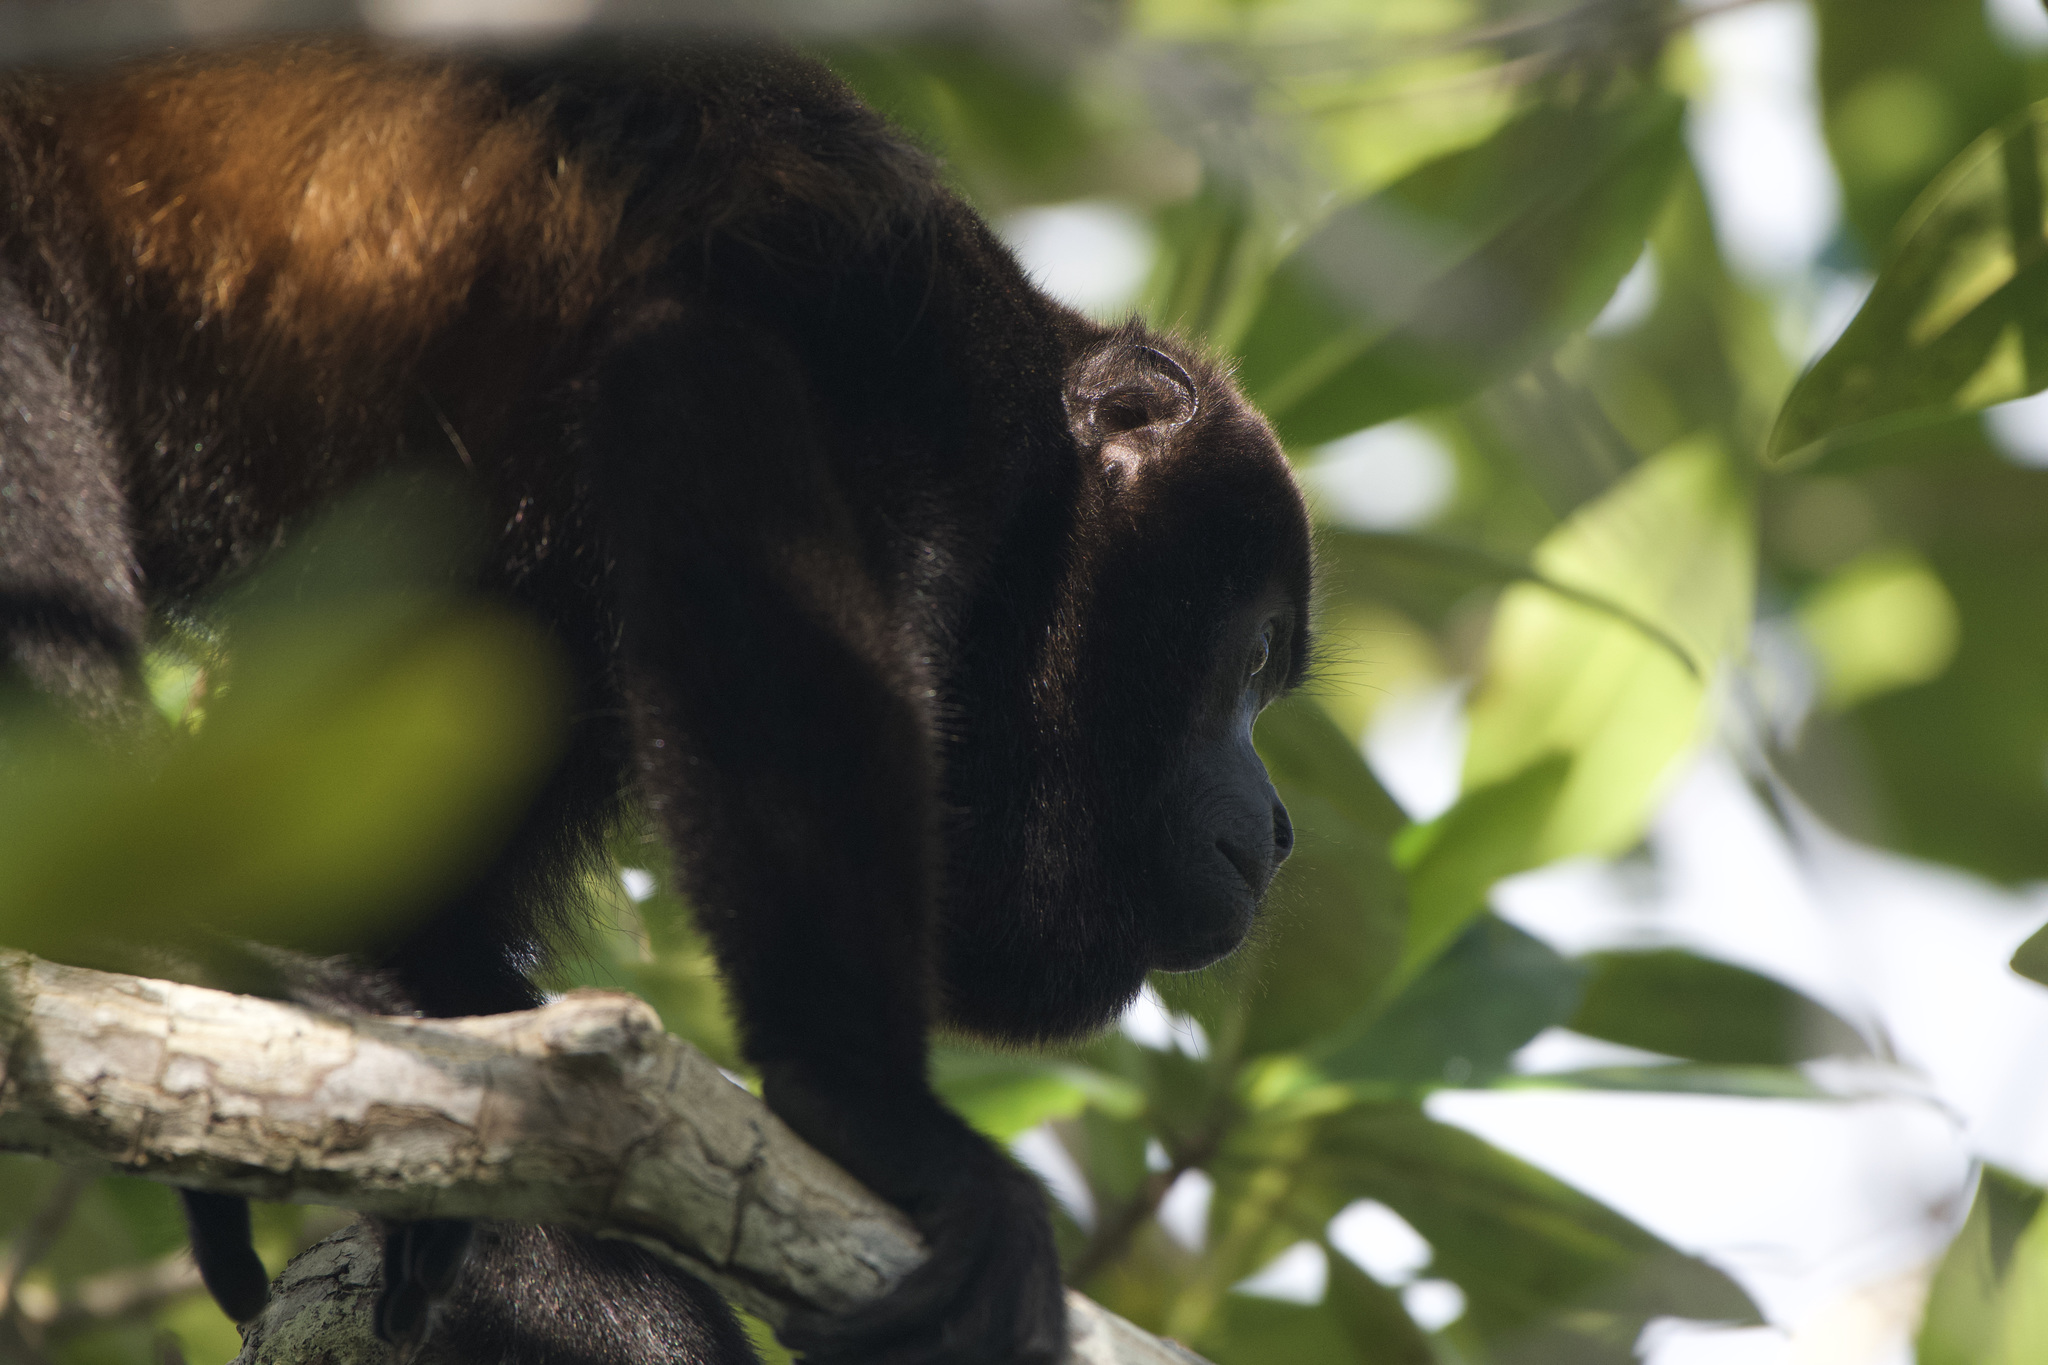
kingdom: Animalia
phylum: Chordata
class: Mammalia
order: Primates
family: Atelidae
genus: Alouatta
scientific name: Alouatta palliata
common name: Mantled howler
